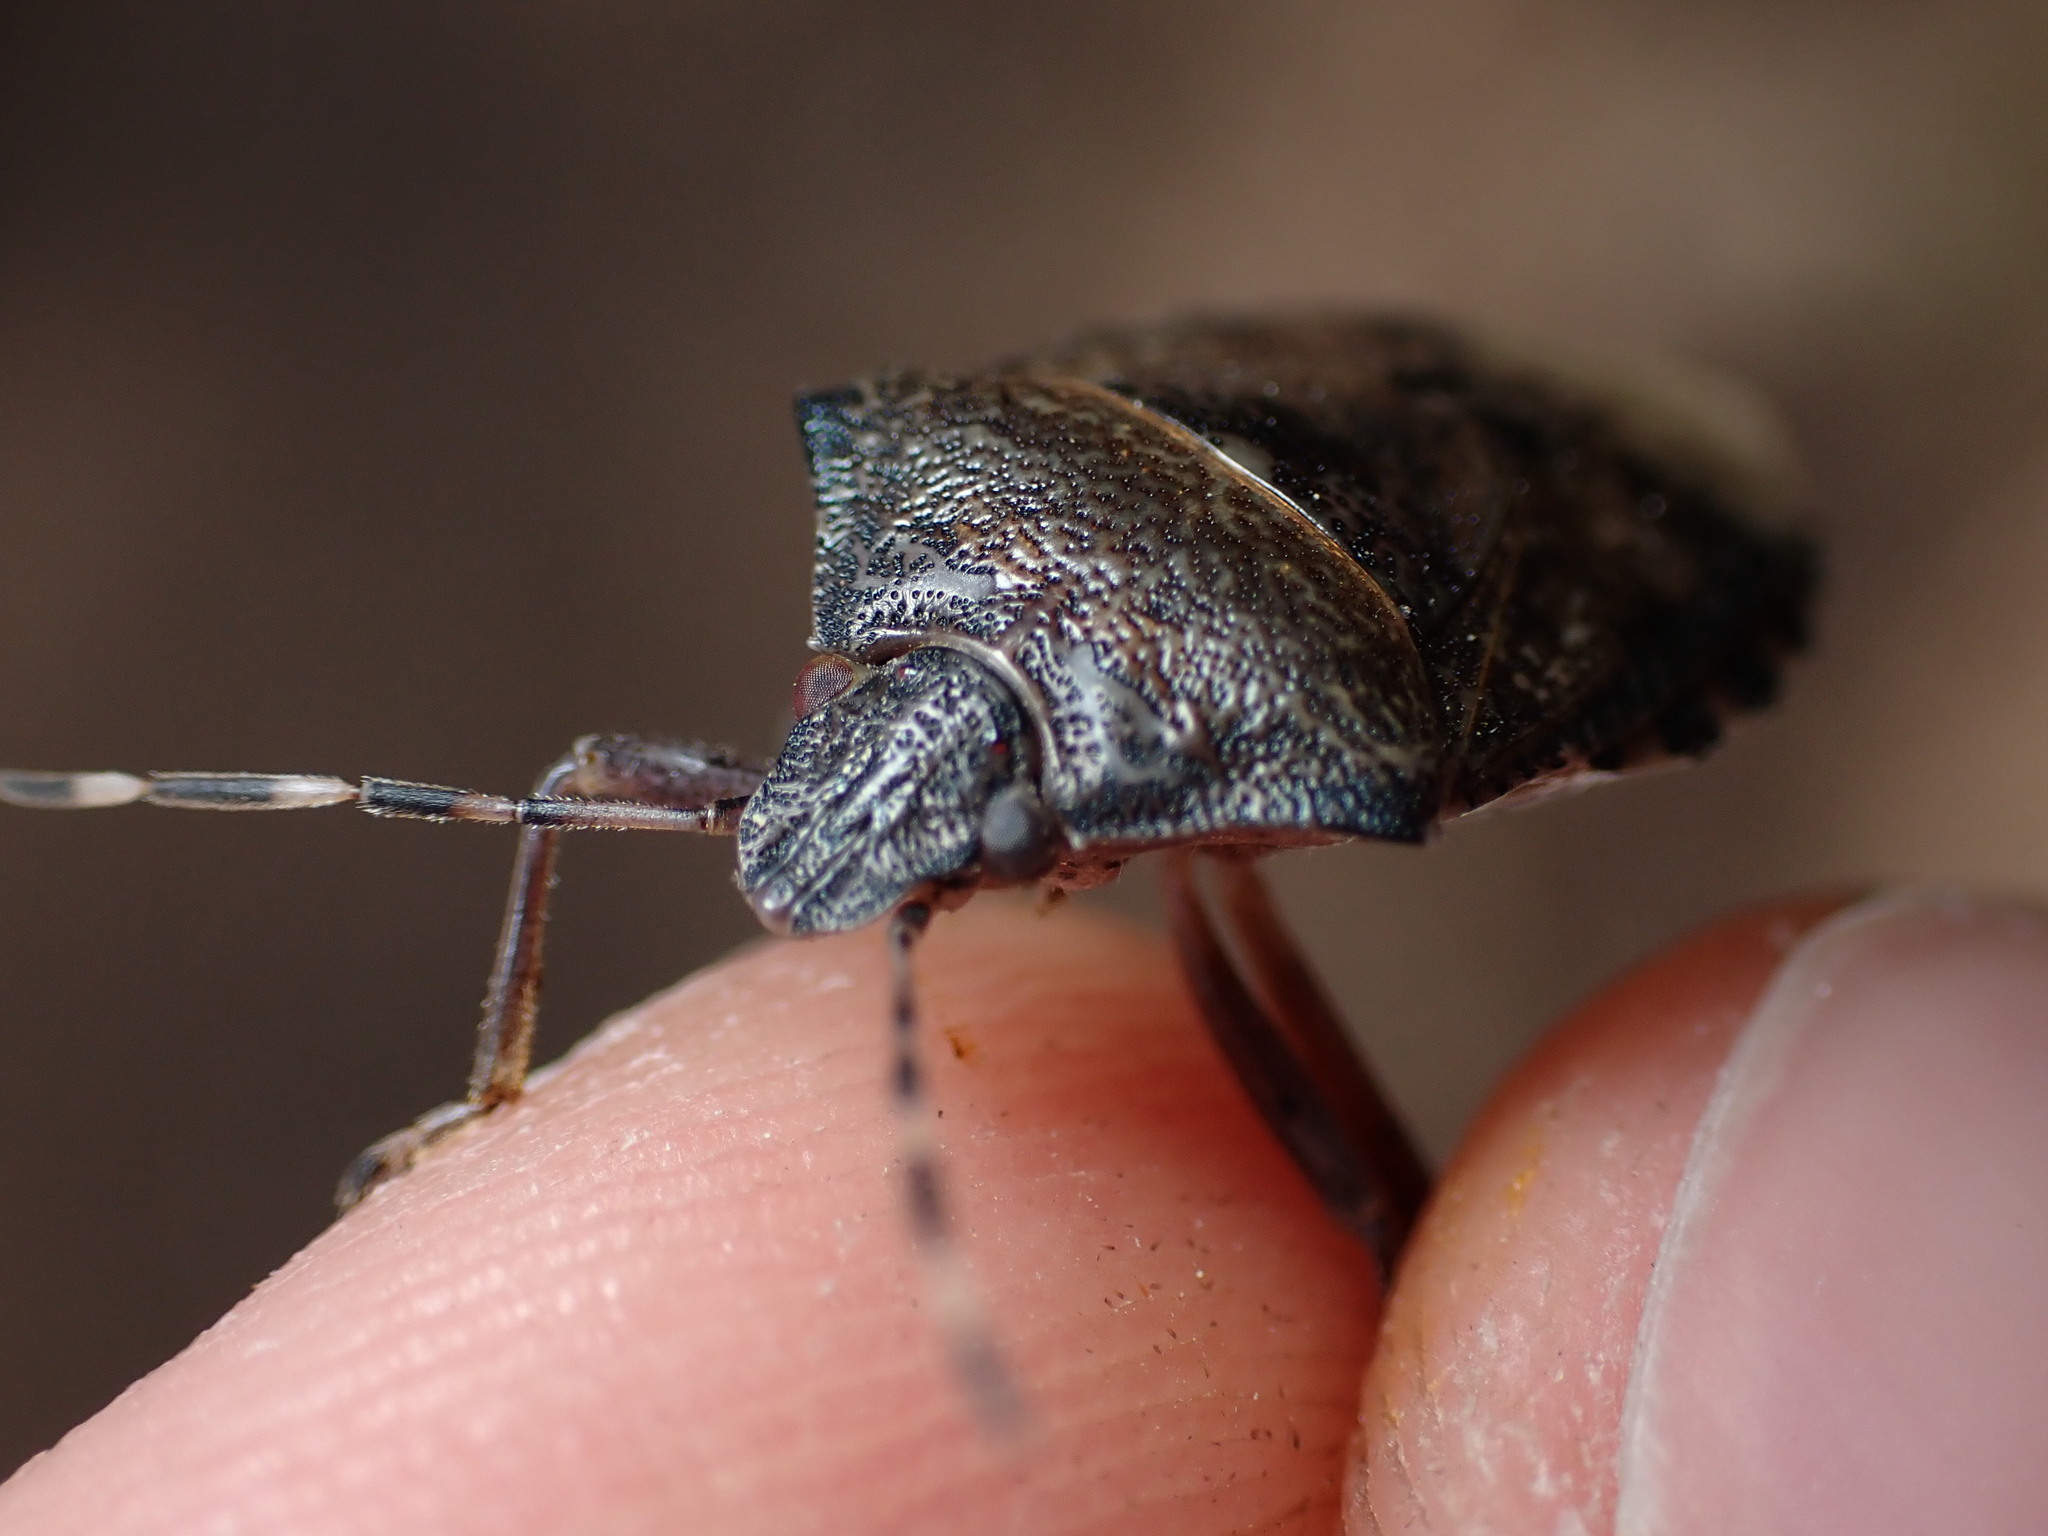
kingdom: Animalia
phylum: Arthropoda
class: Insecta
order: Hemiptera
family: Pentatomidae
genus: Rhaphigaster
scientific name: Rhaphigaster nebulosa
